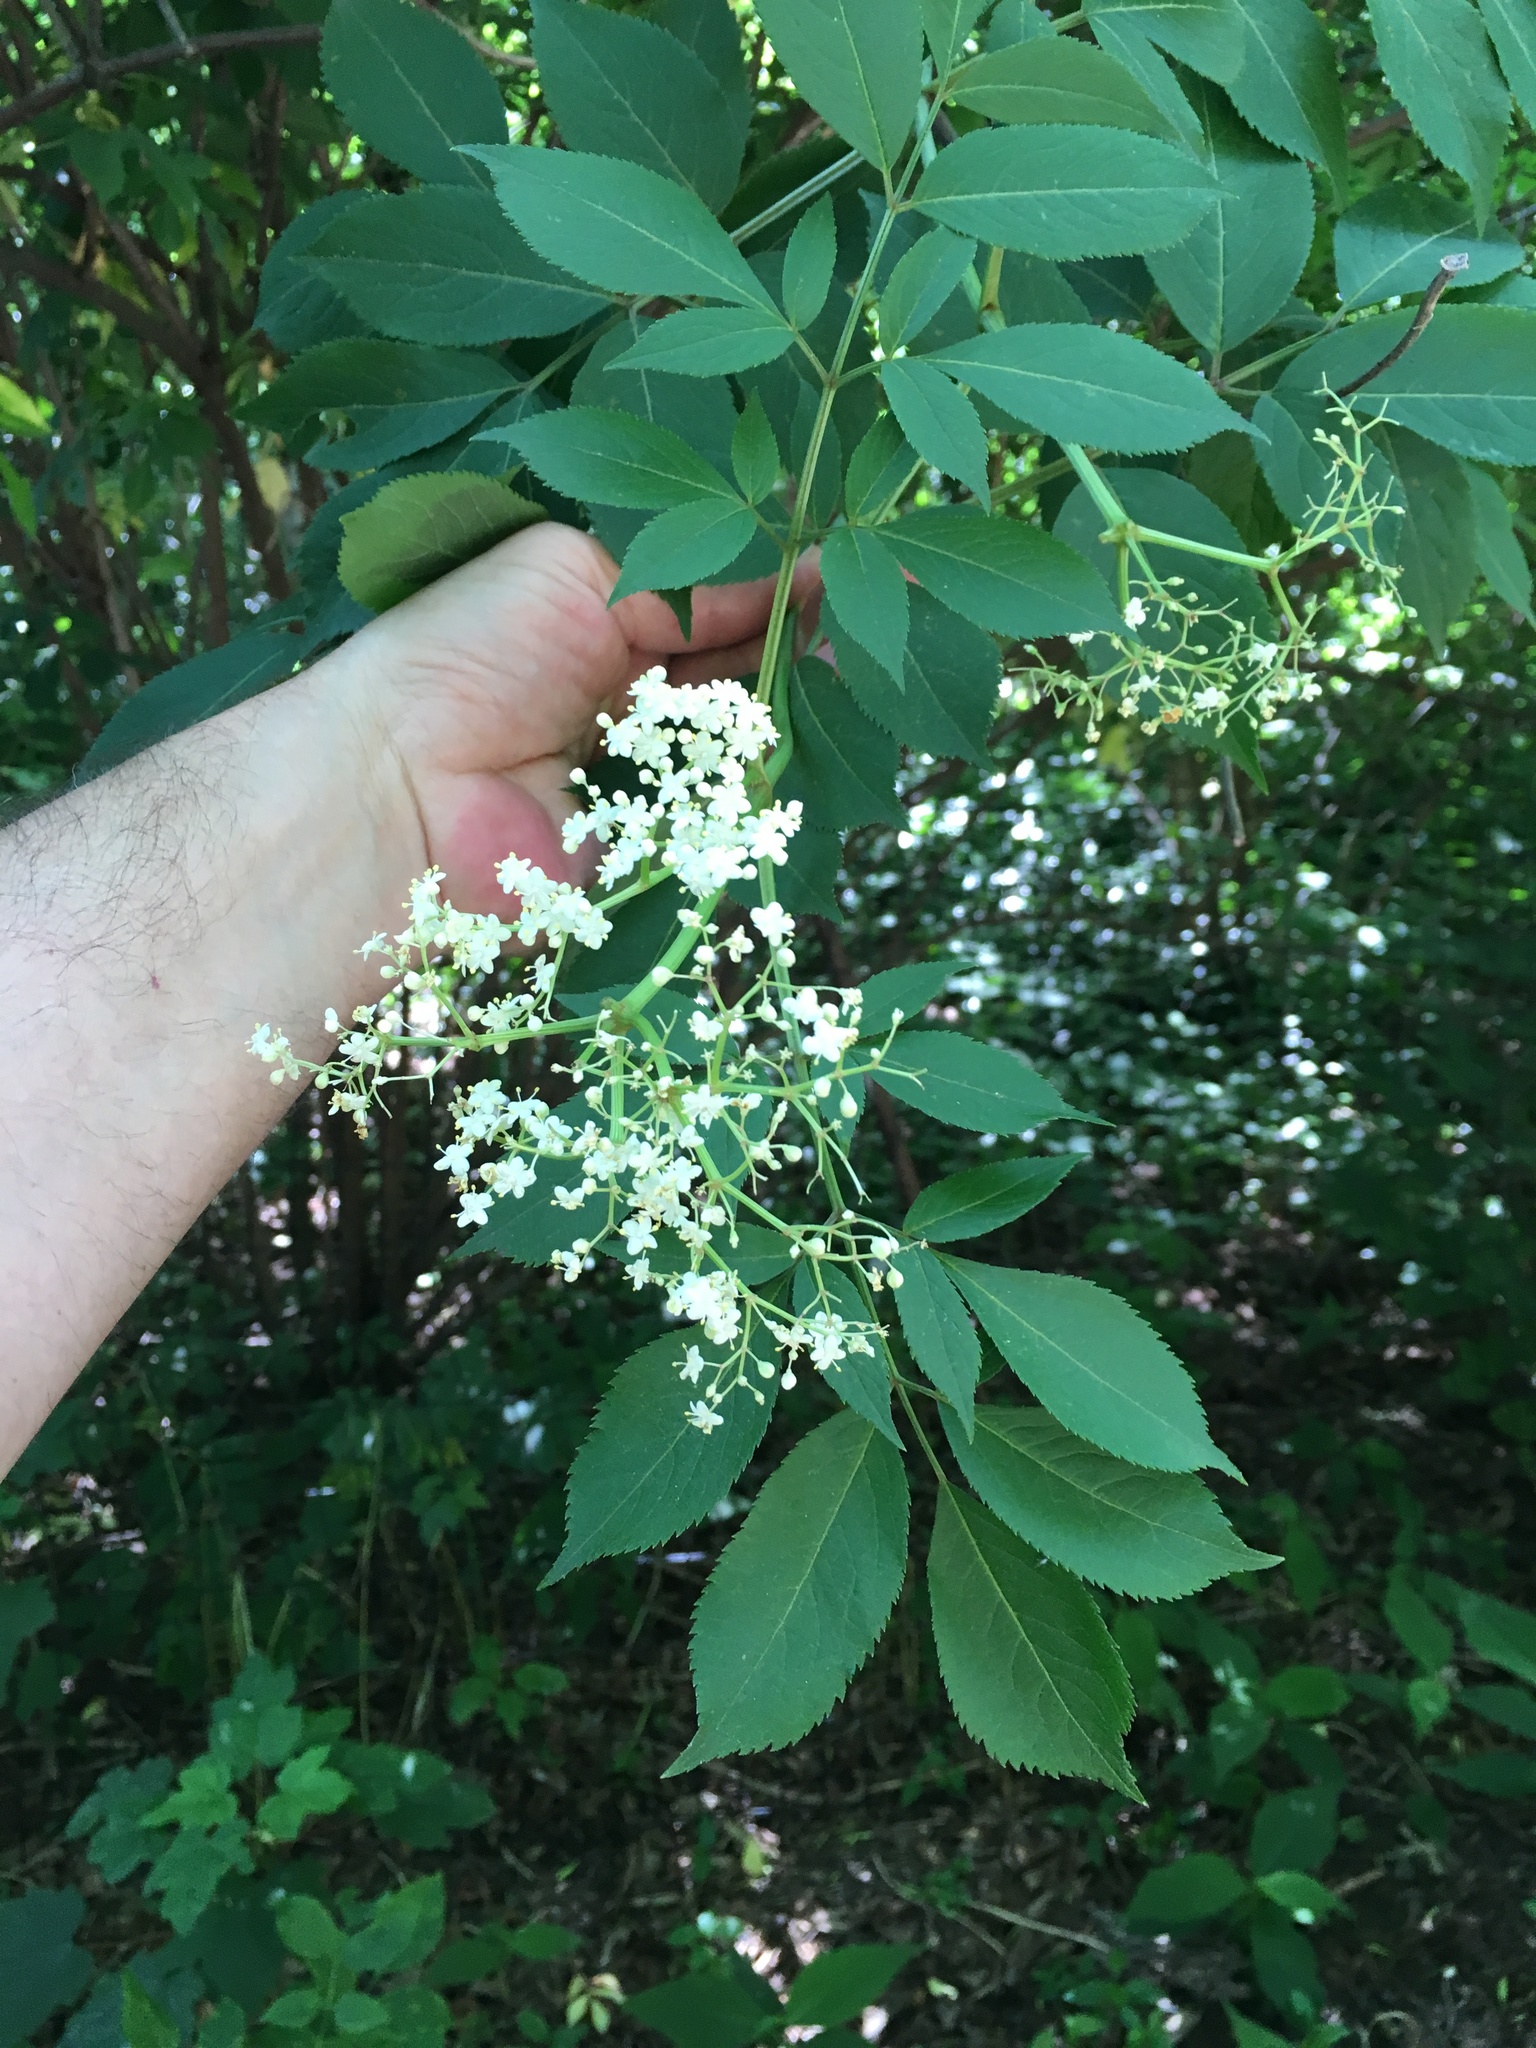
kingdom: Plantae
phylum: Tracheophyta
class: Magnoliopsida
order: Dipsacales
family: Viburnaceae
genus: Sambucus
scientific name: Sambucus canadensis
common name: American elder
